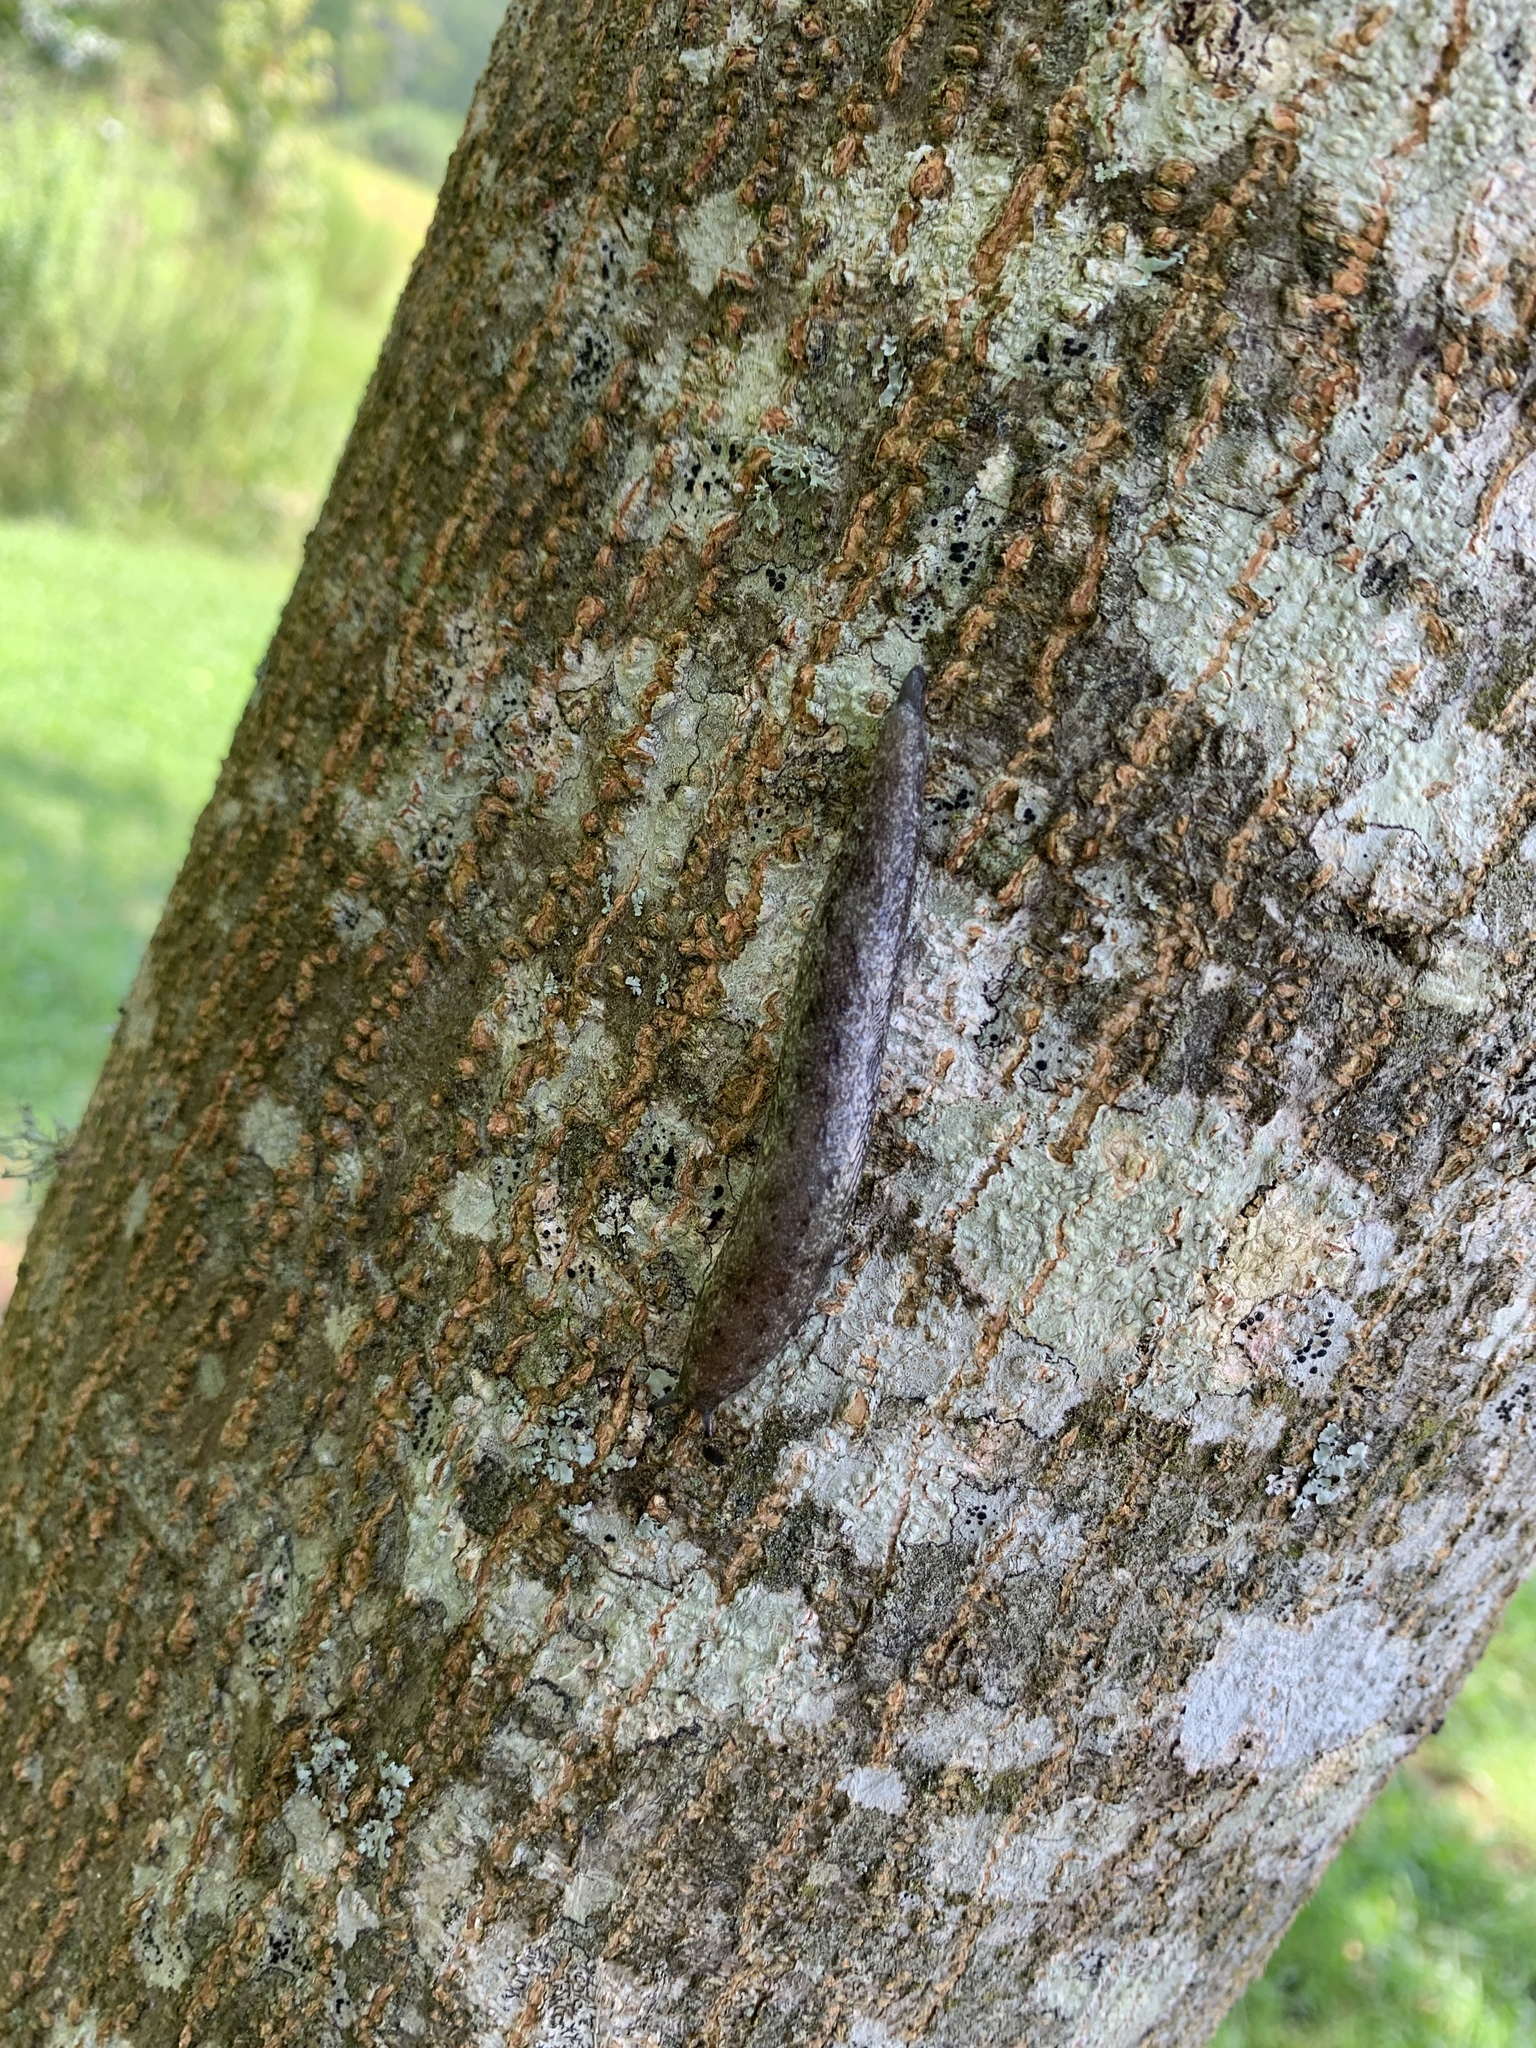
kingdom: Animalia
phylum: Mollusca
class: Gastropoda
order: Stylommatophora
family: Philomycidae
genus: Megapallifera
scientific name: Megapallifera mutabilis
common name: Changeable mantleslug
